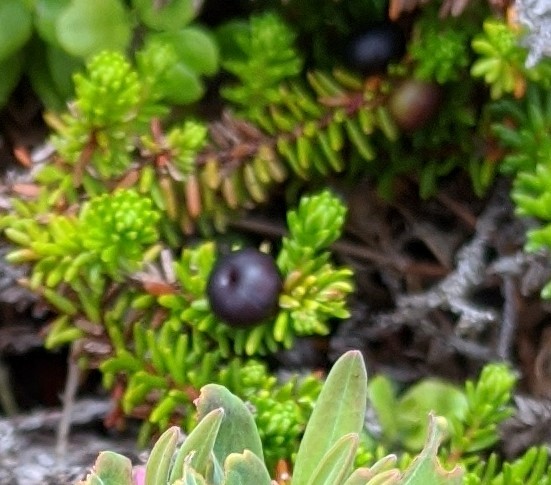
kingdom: Plantae
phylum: Tracheophyta
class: Magnoliopsida
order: Ericales
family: Ericaceae
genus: Empetrum
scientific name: Empetrum nigrum
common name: Black crowberry
